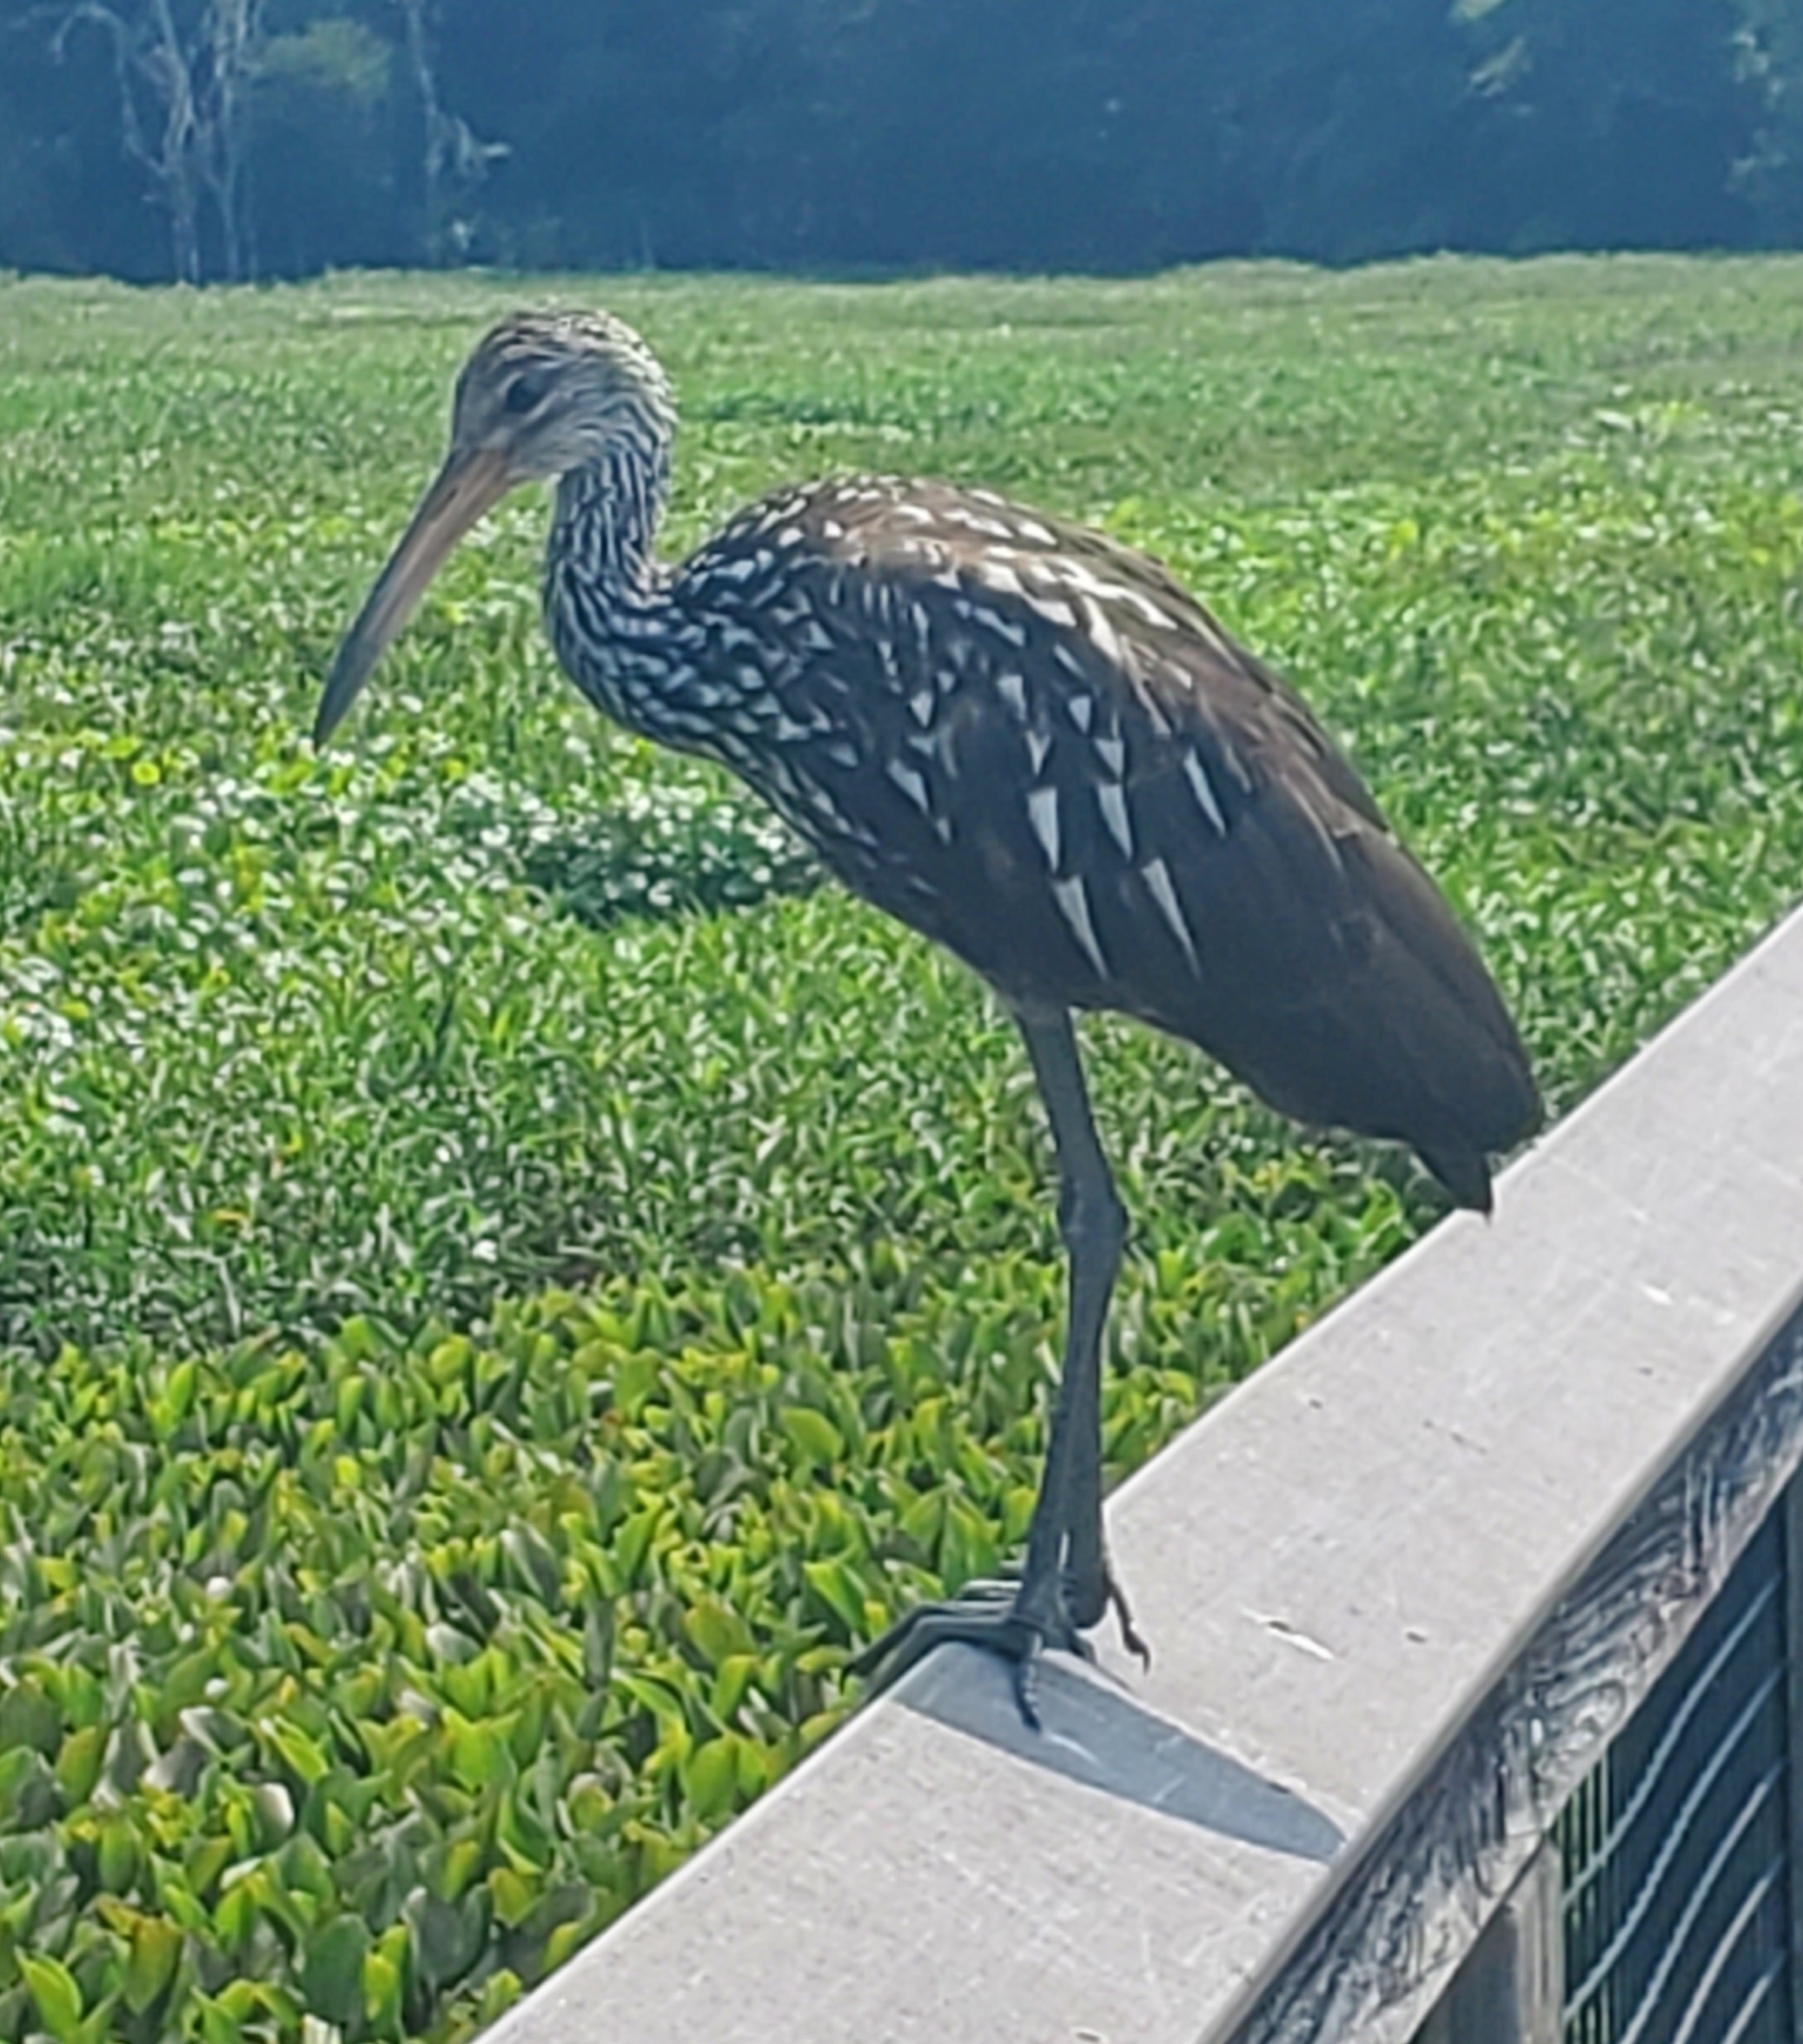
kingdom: Animalia
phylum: Chordata
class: Aves
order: Gruiformes
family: Aramidae
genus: Aramus
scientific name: Aramus guarauna
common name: Limpkin
